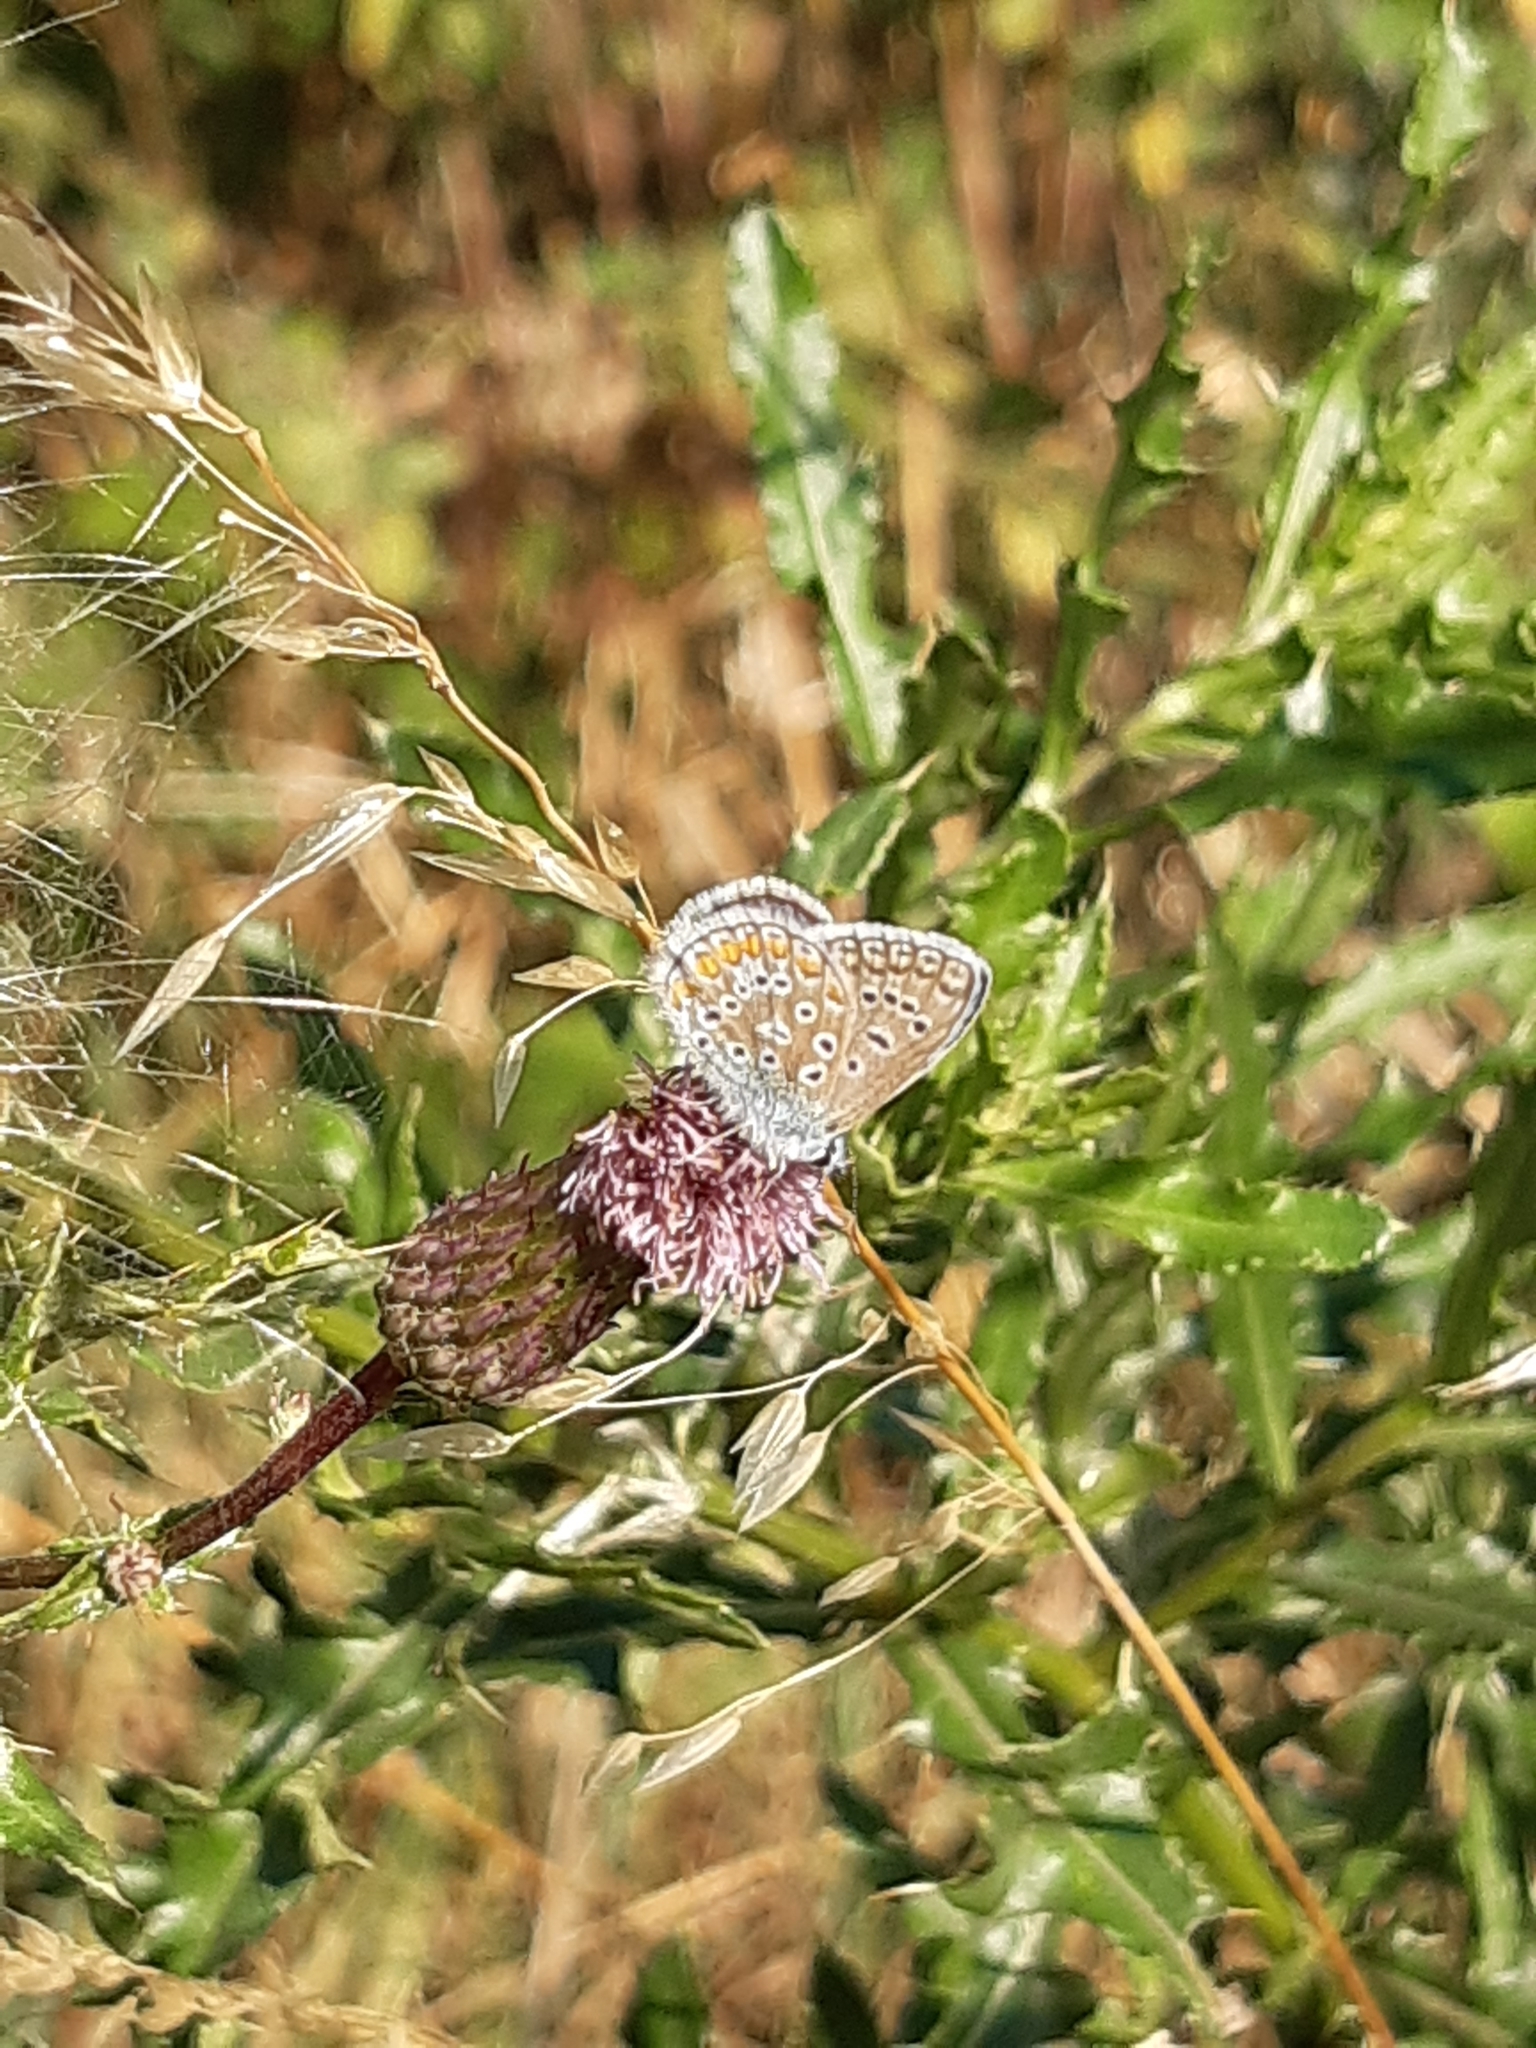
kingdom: Animalia
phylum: Arthropoda
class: Insecta
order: Lepidoptera
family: Lycaenidae
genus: Polyommatus
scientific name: Polyommatus icarus
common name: Common blue
